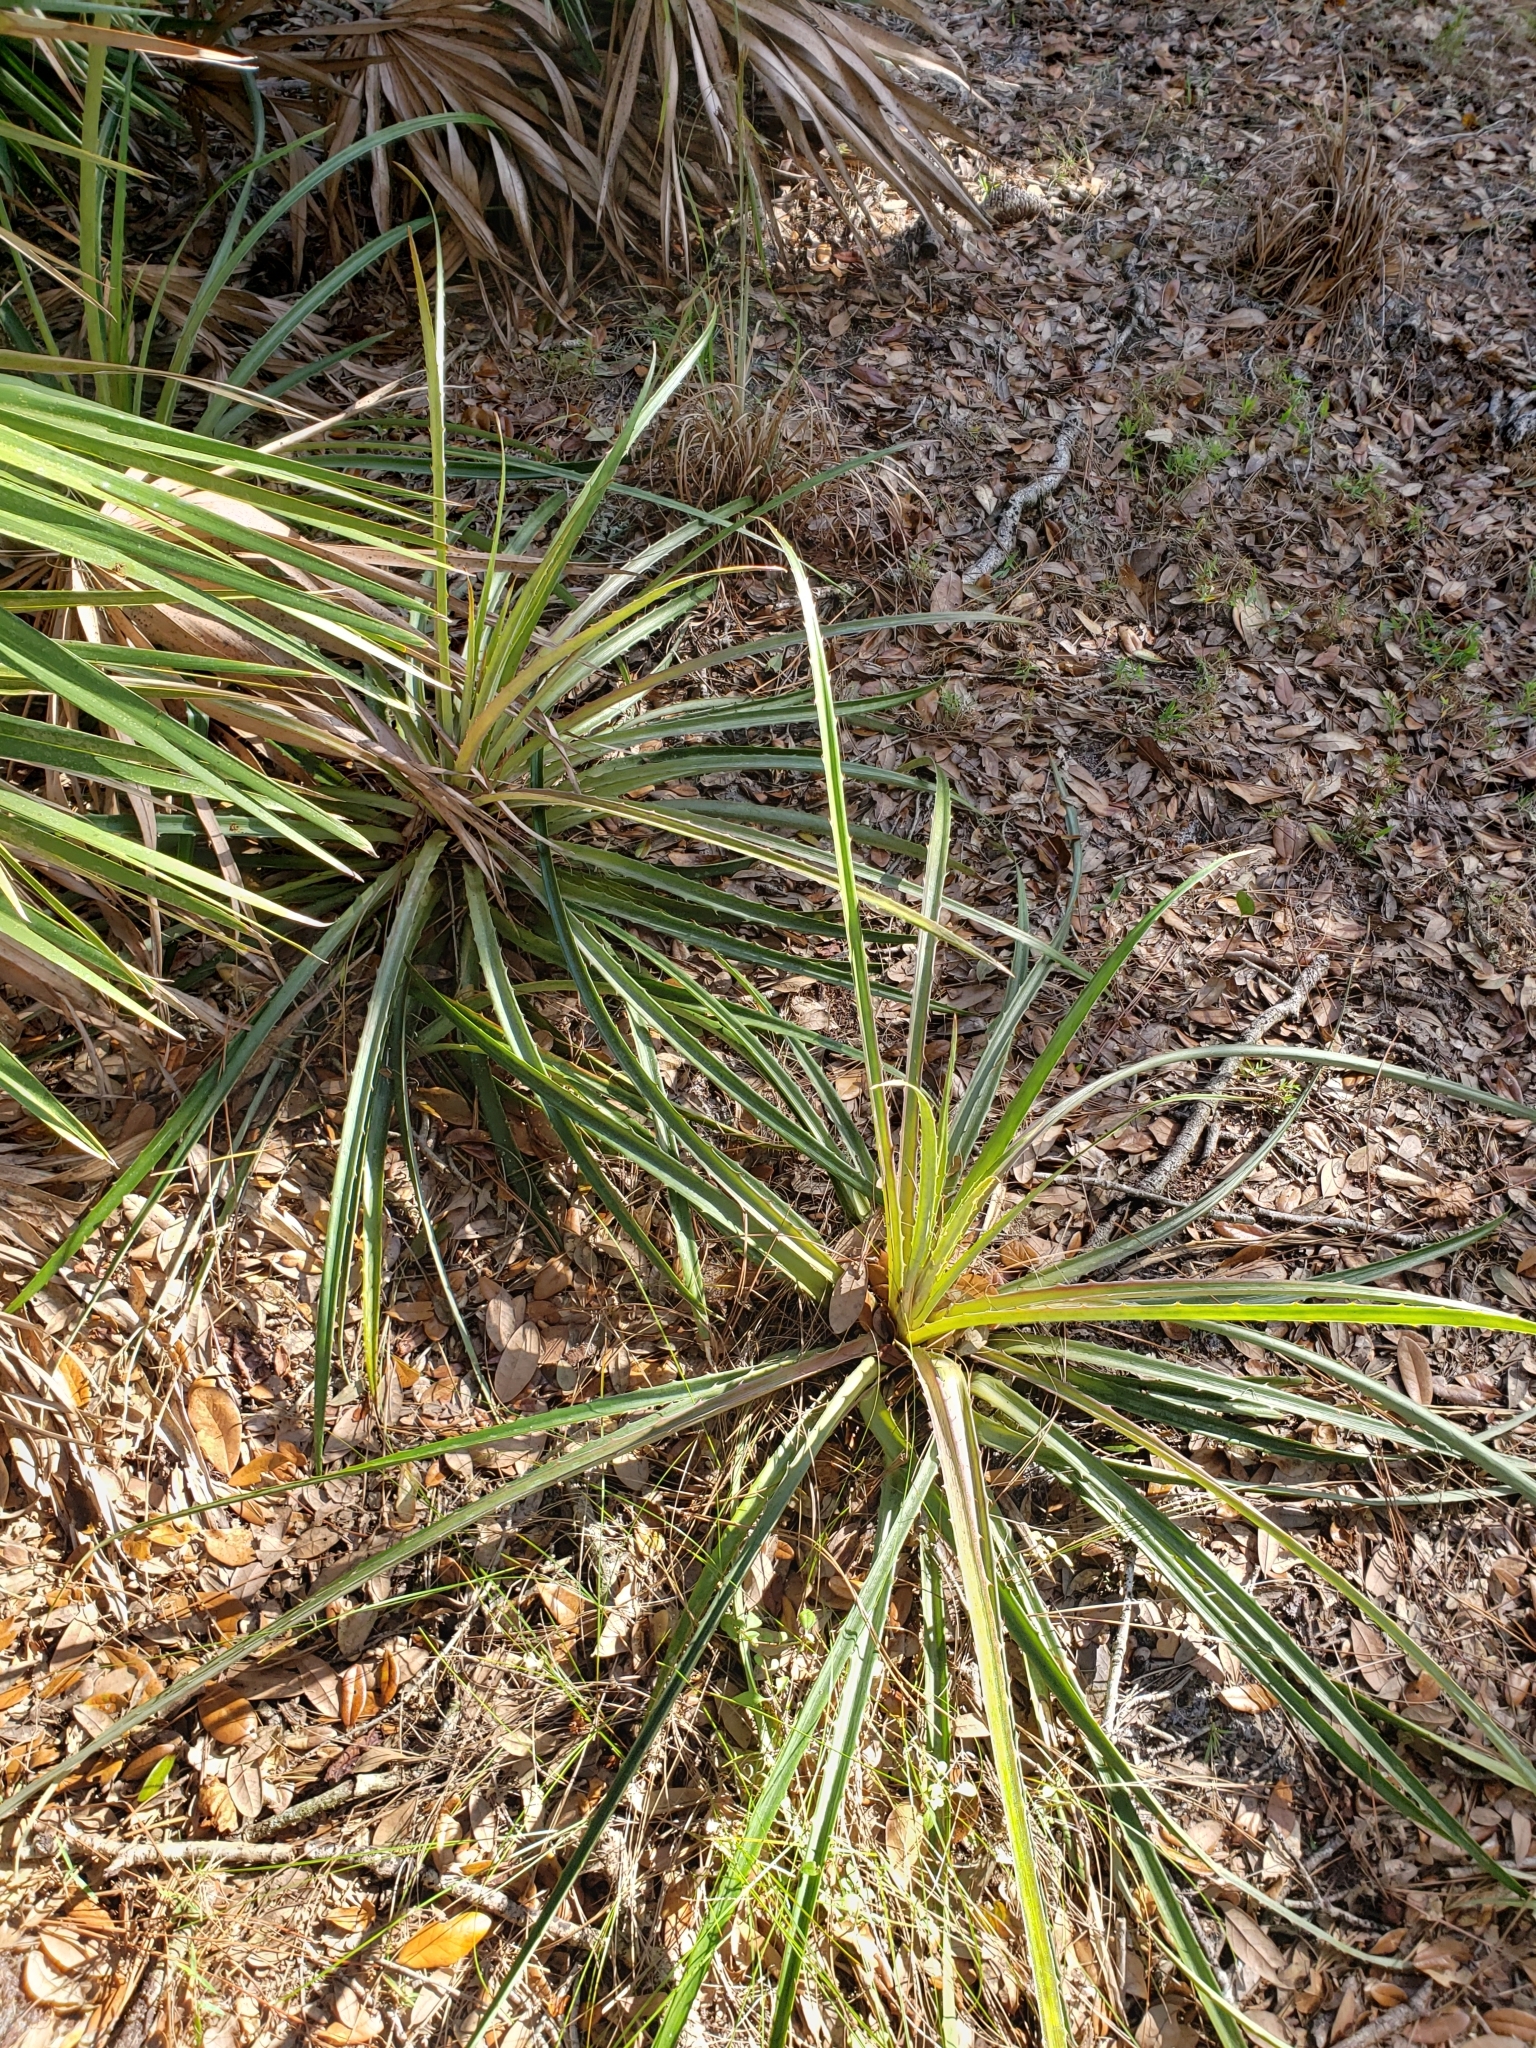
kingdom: Plantae
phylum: Tracheophyta
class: Liliopsida
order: Poales
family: Bromeliaceae
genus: Bromelia
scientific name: Bromelia pinguin
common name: Pinguin
